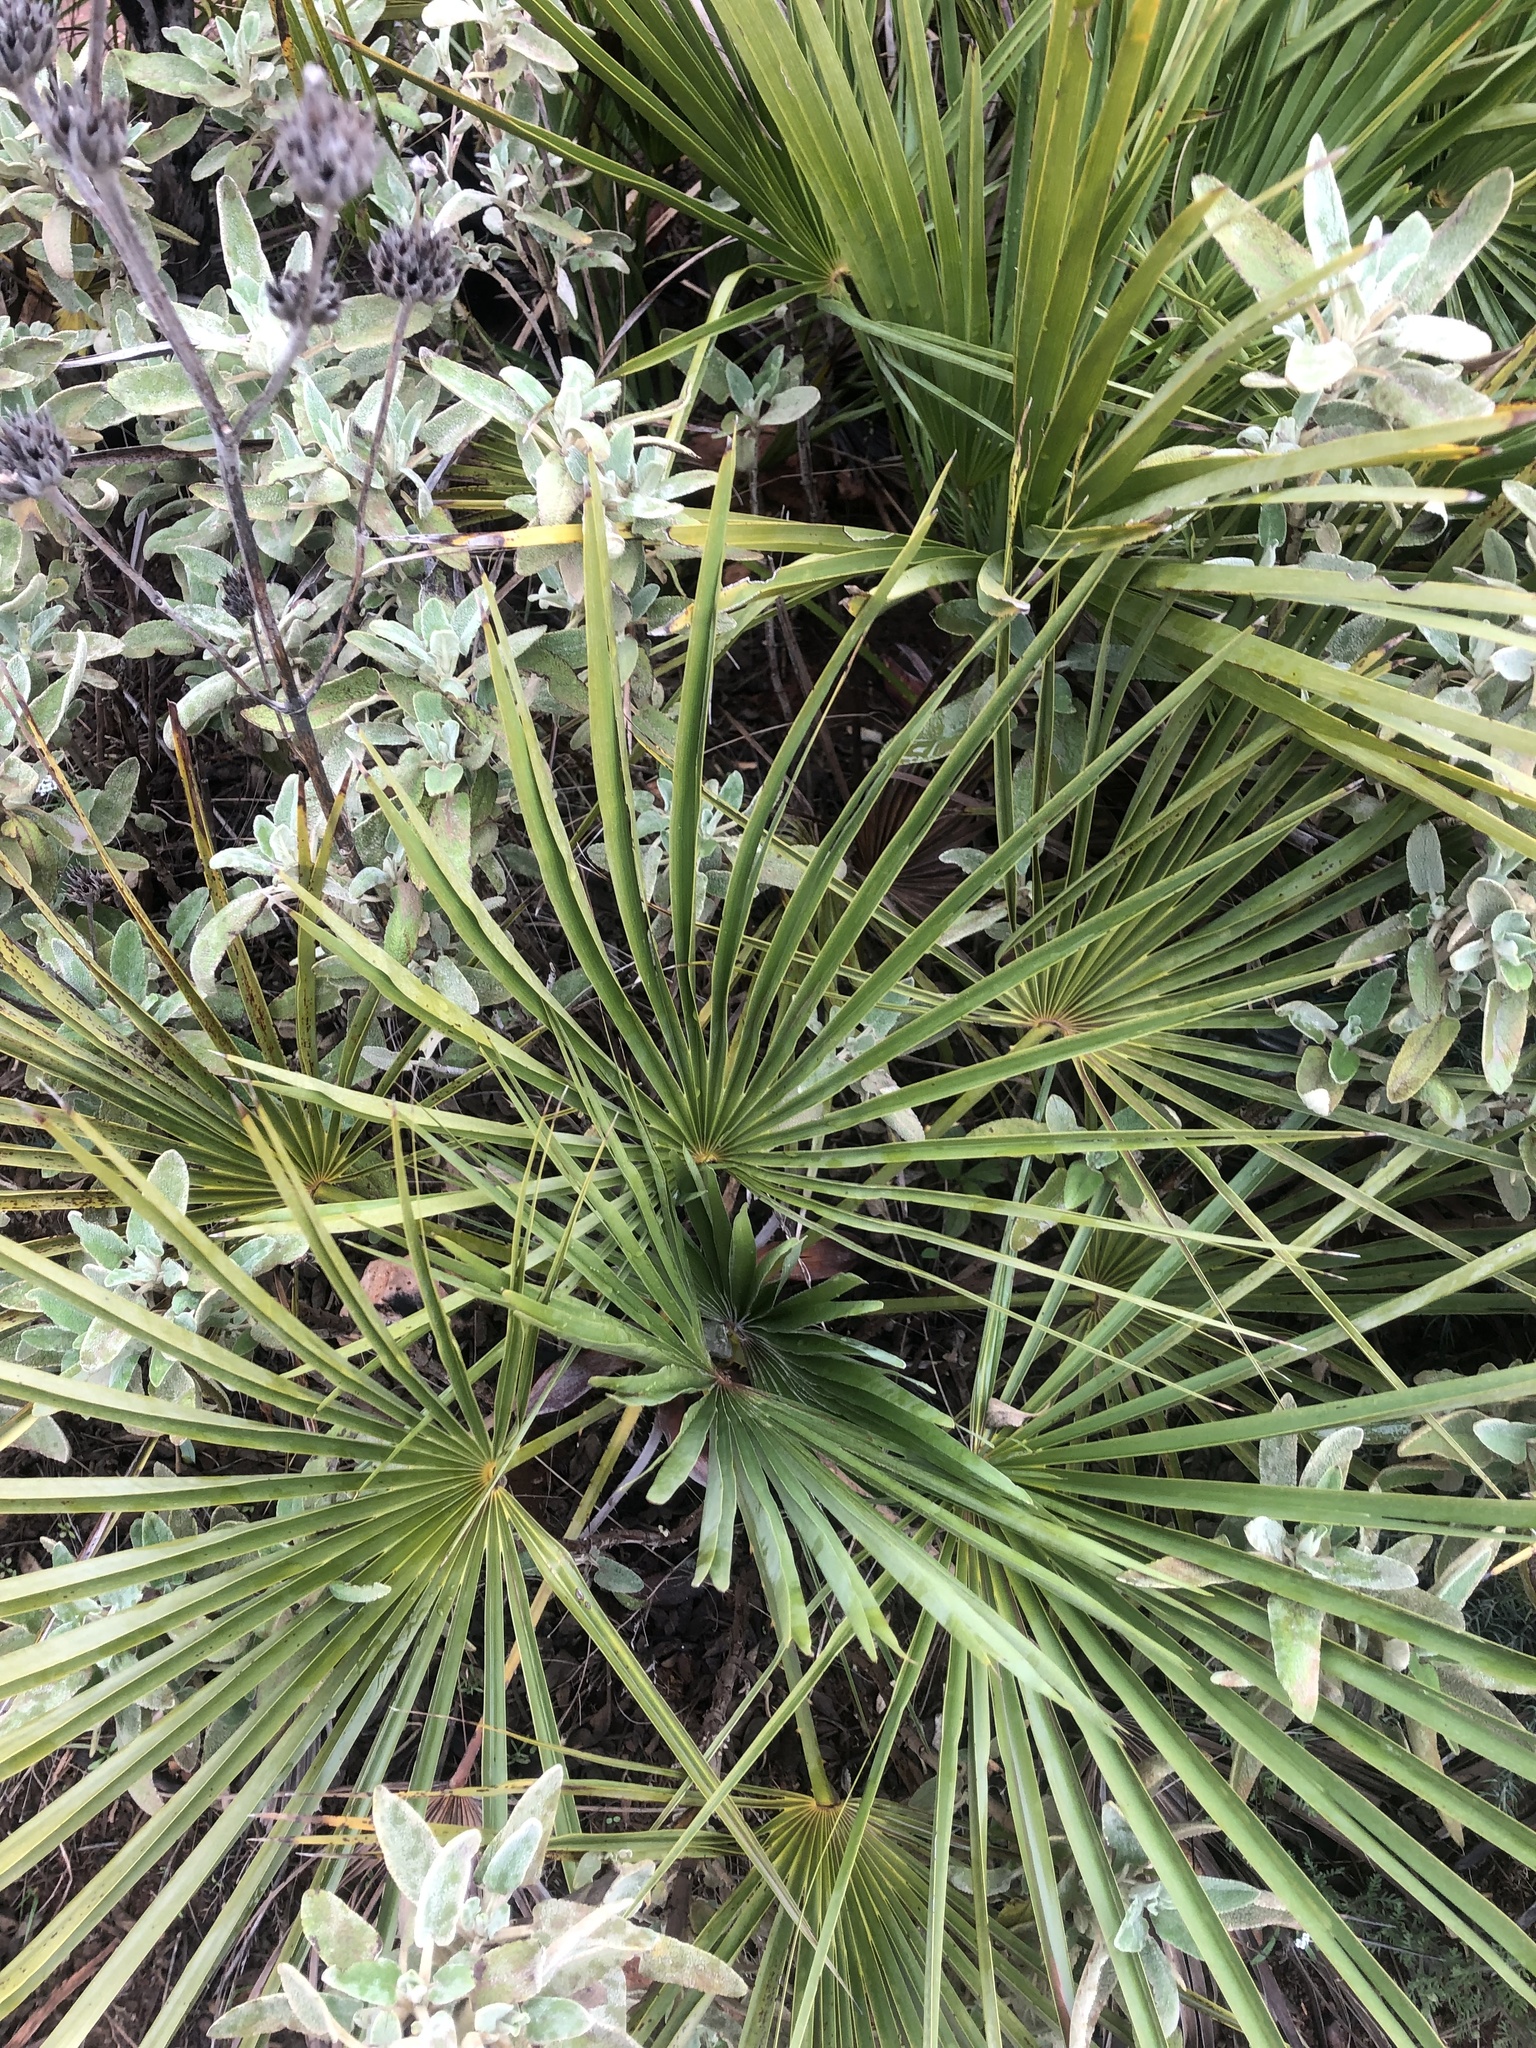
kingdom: Plantae
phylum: Tracheophyta
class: Liliopsida
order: Arecales
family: Arecaceae
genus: Chamaerops
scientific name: Chamaerops humilis
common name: Dwarf fan palm
